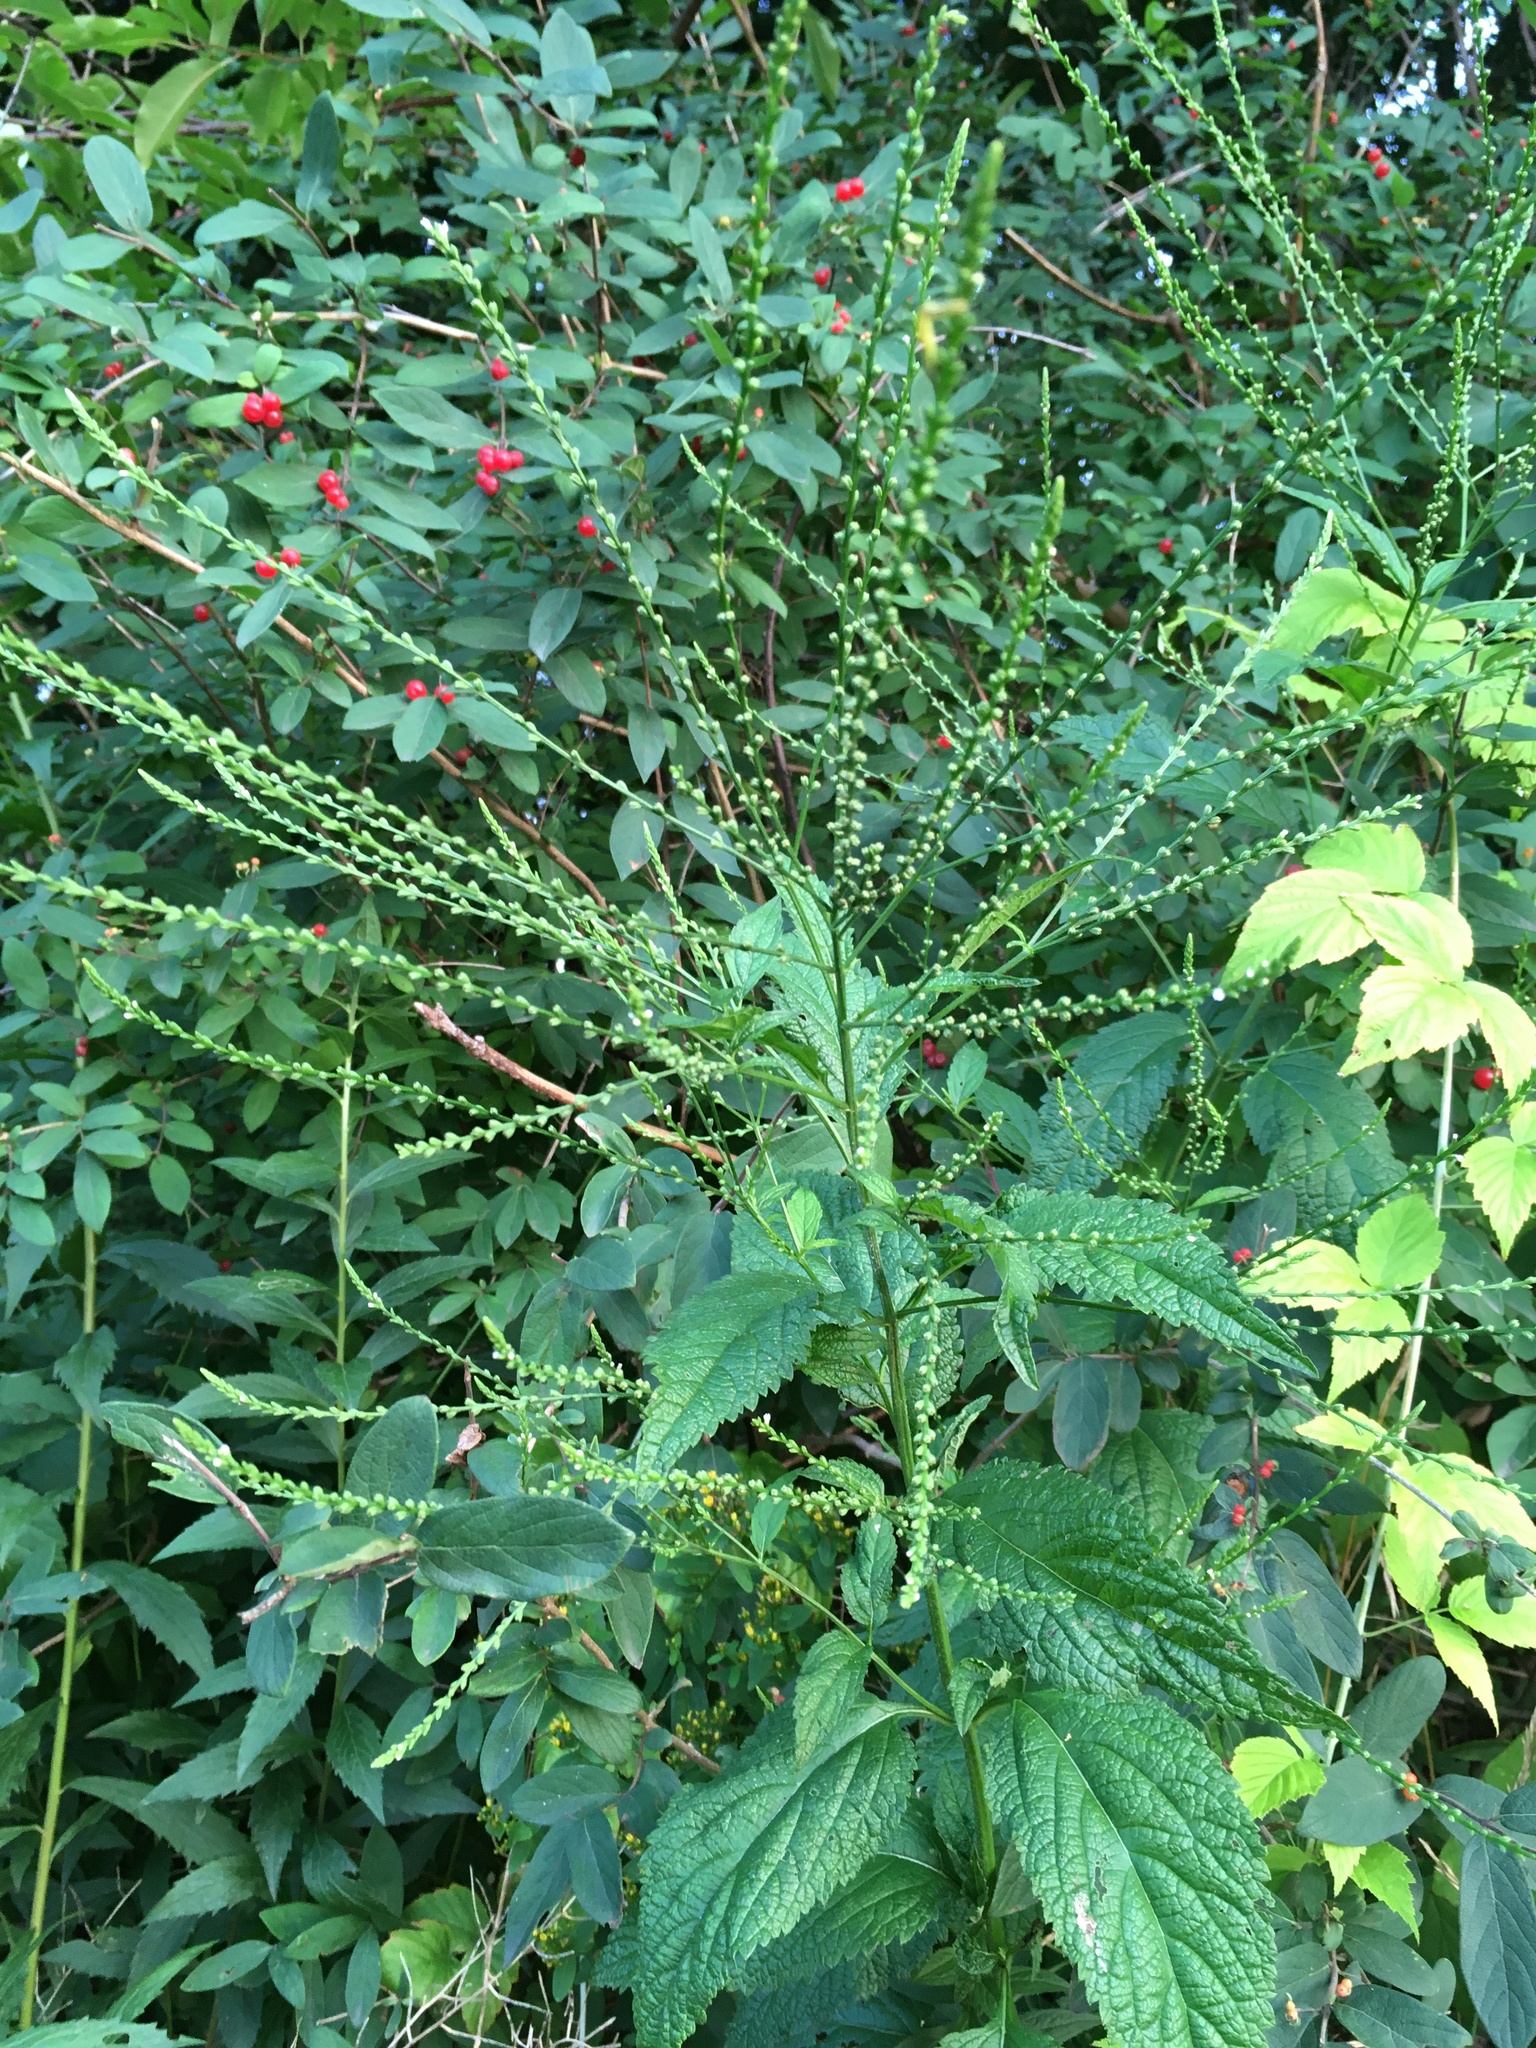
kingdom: Plantae
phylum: Tracheophyta
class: Magnoliopsida
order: Lamiales
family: Verbenaceae
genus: Verbena
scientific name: Verbena urticifolia
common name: Nettle-leaved vervain
